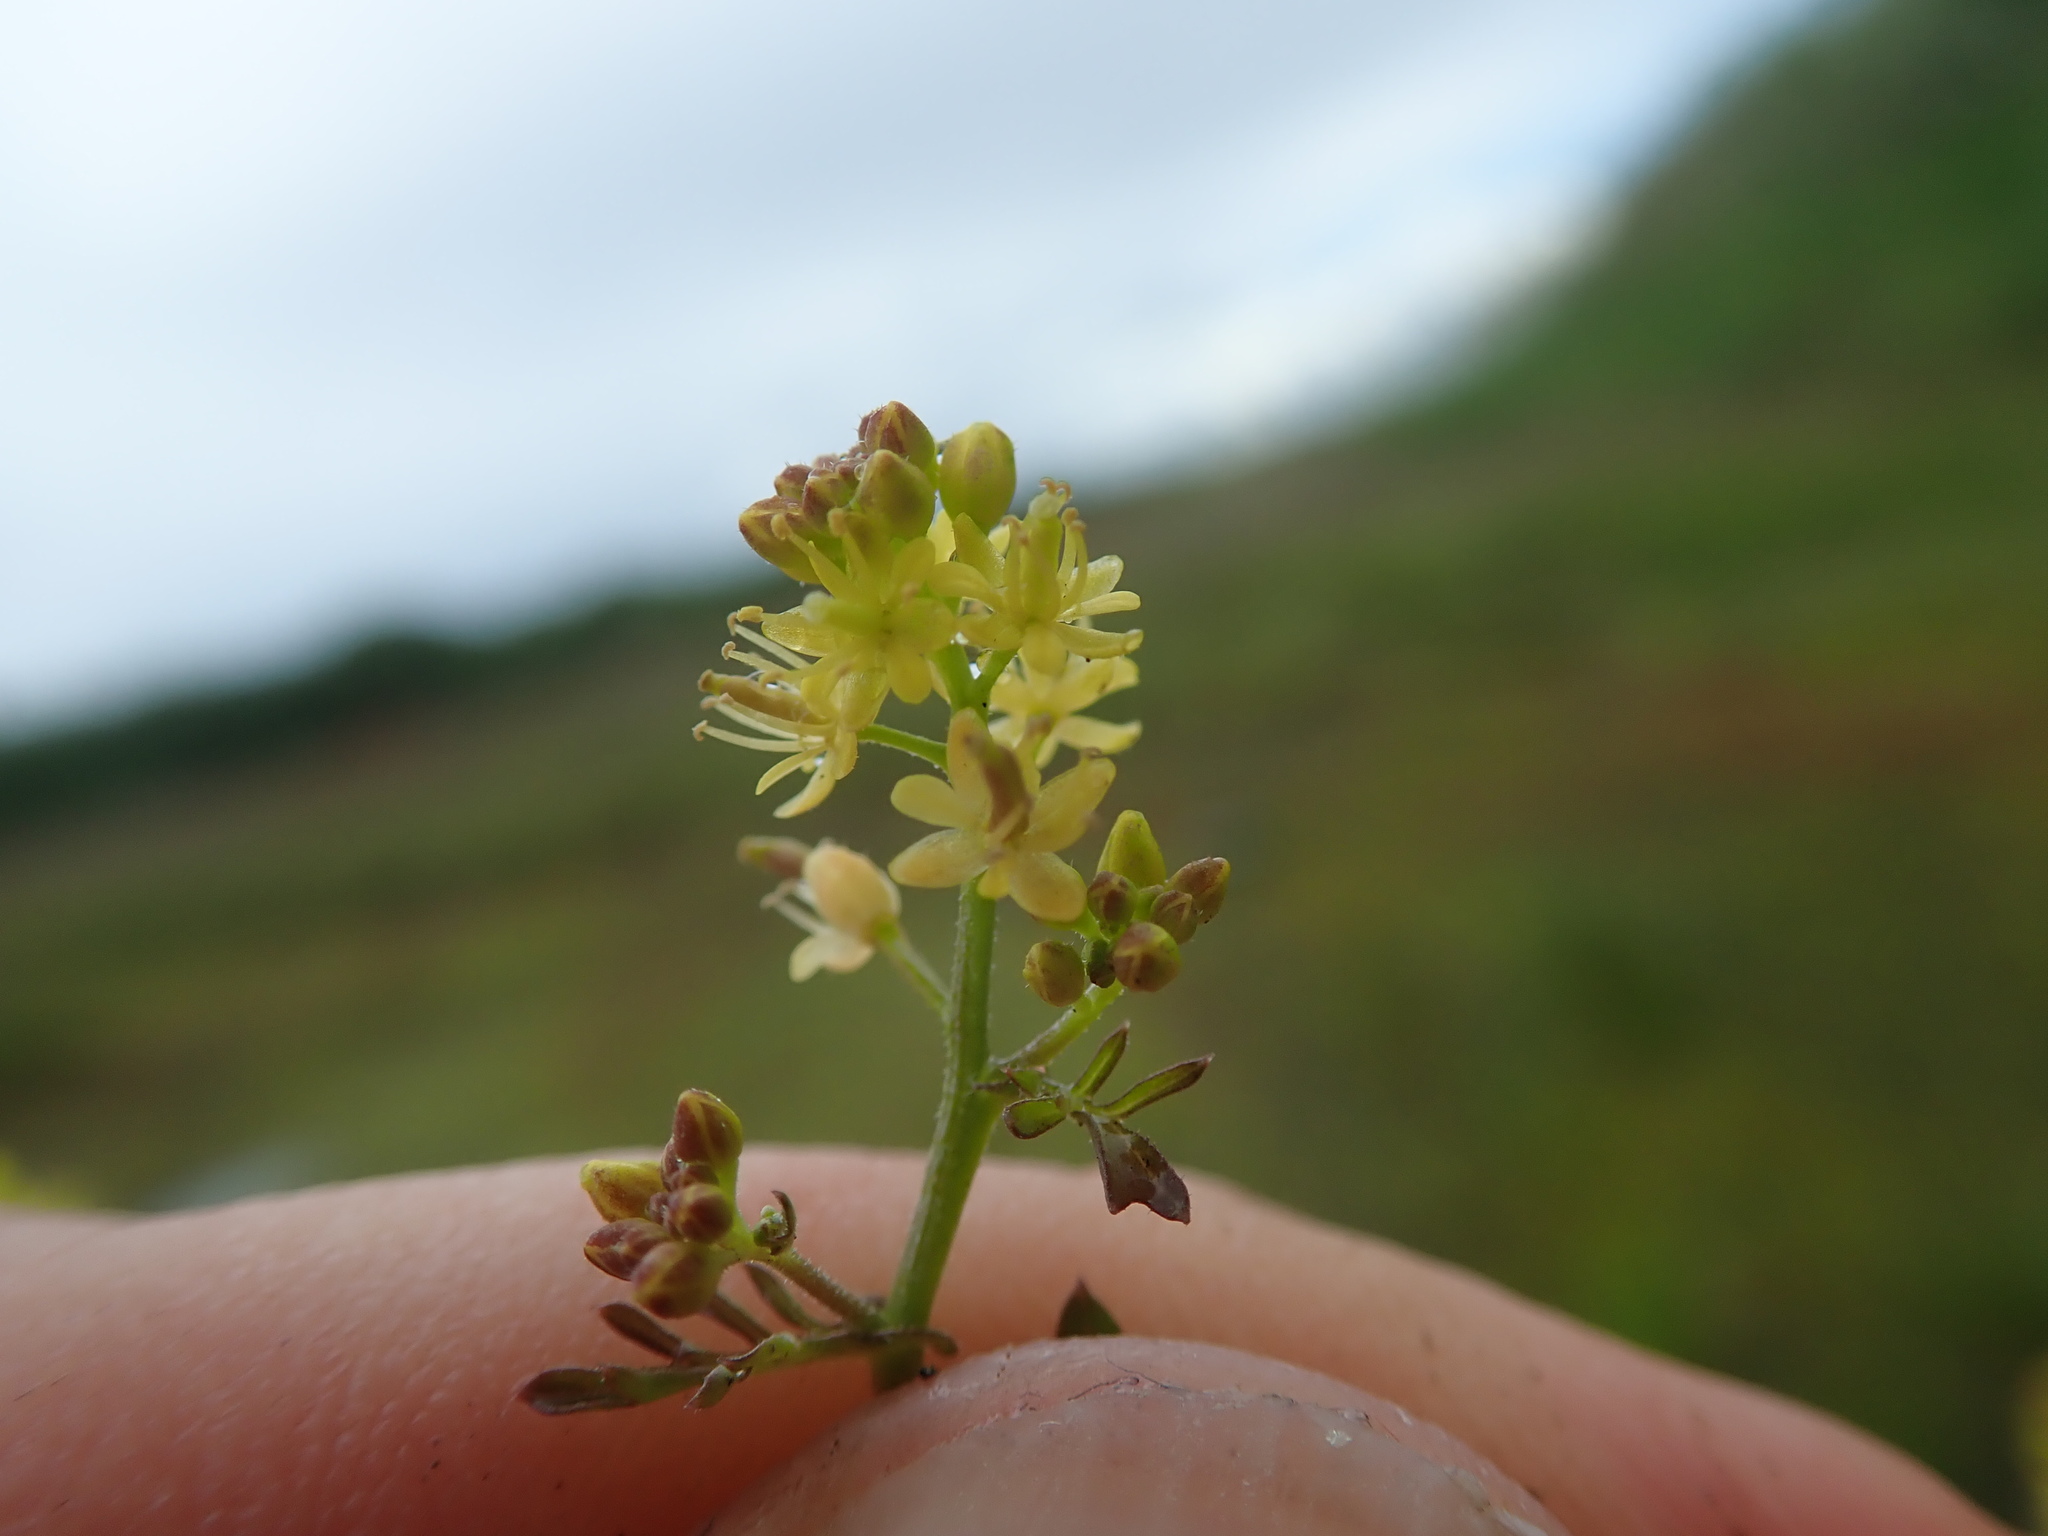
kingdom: Plantae
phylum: Tracheophyta
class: Magnoliopsida
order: Brassicales
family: Brassicaceae
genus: Rorippa
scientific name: Rorippa curvisiliqua
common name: Curve-pod yellow cress
